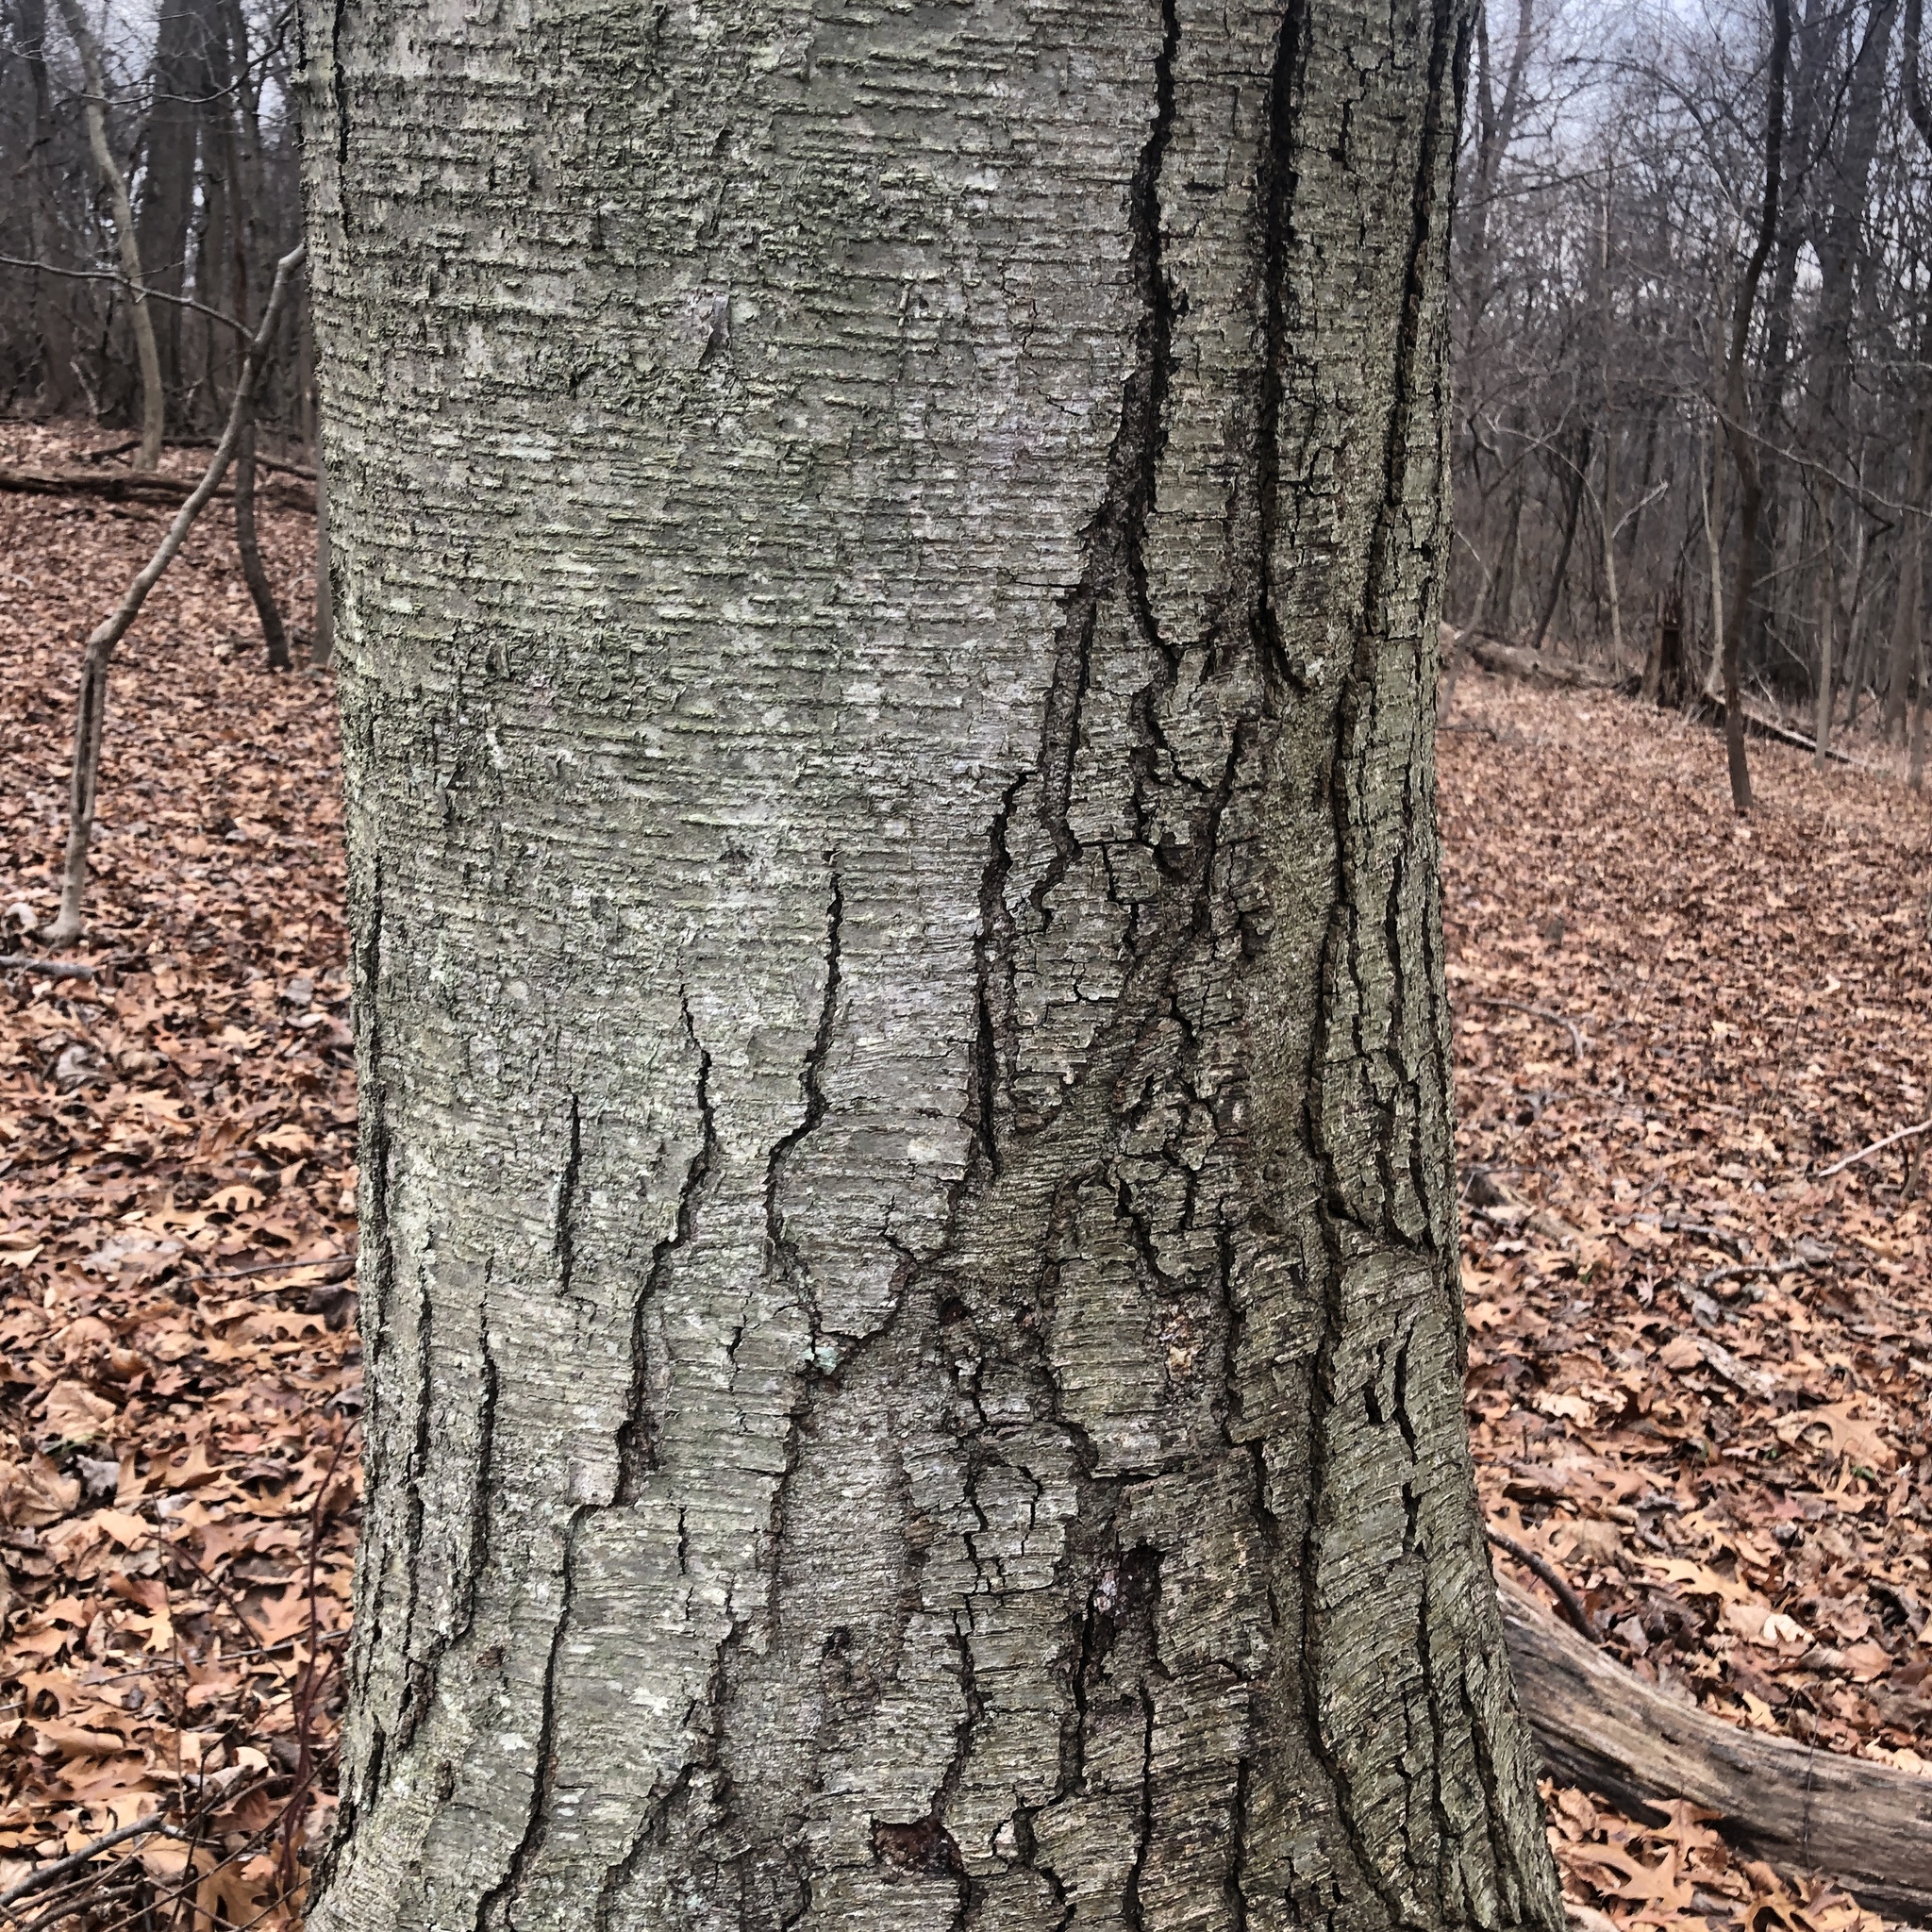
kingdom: Plantae
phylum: Tracheophyta
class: Magnoliopsida
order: Fagales
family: Betulaceae
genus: Betula
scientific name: Betula lenta
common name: Black birch
